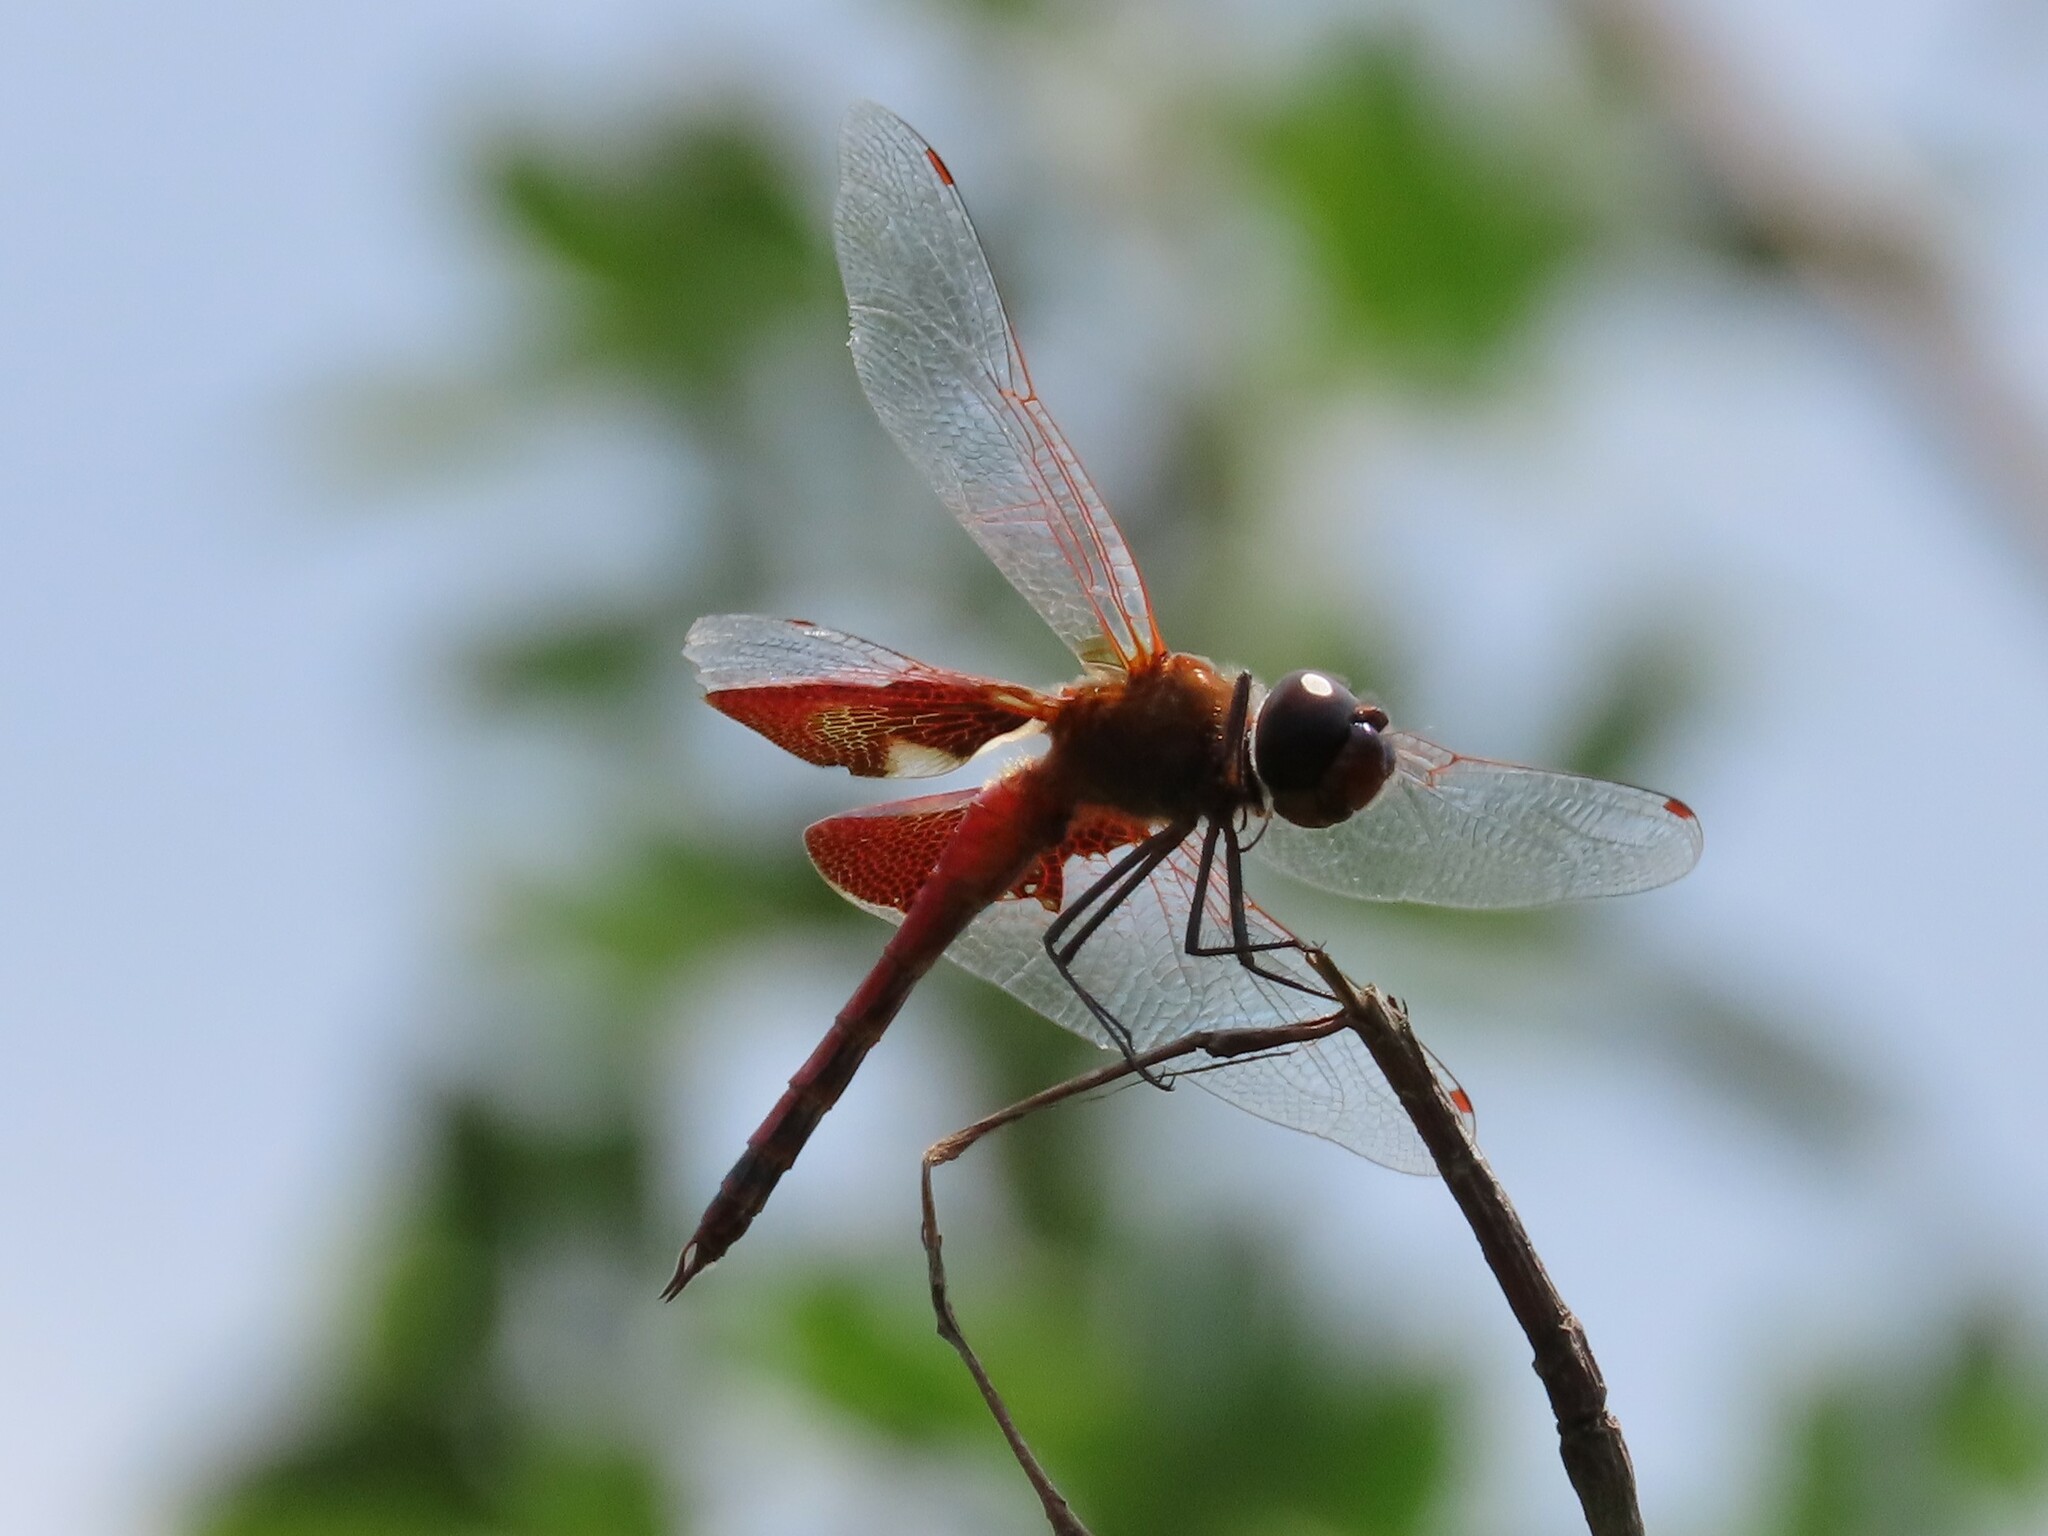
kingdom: Animalia
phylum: Arthropoda
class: Insecta
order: Odonata
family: Libellulidae
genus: Tramea
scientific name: Tramea carolina
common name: Carolina saddlebags
